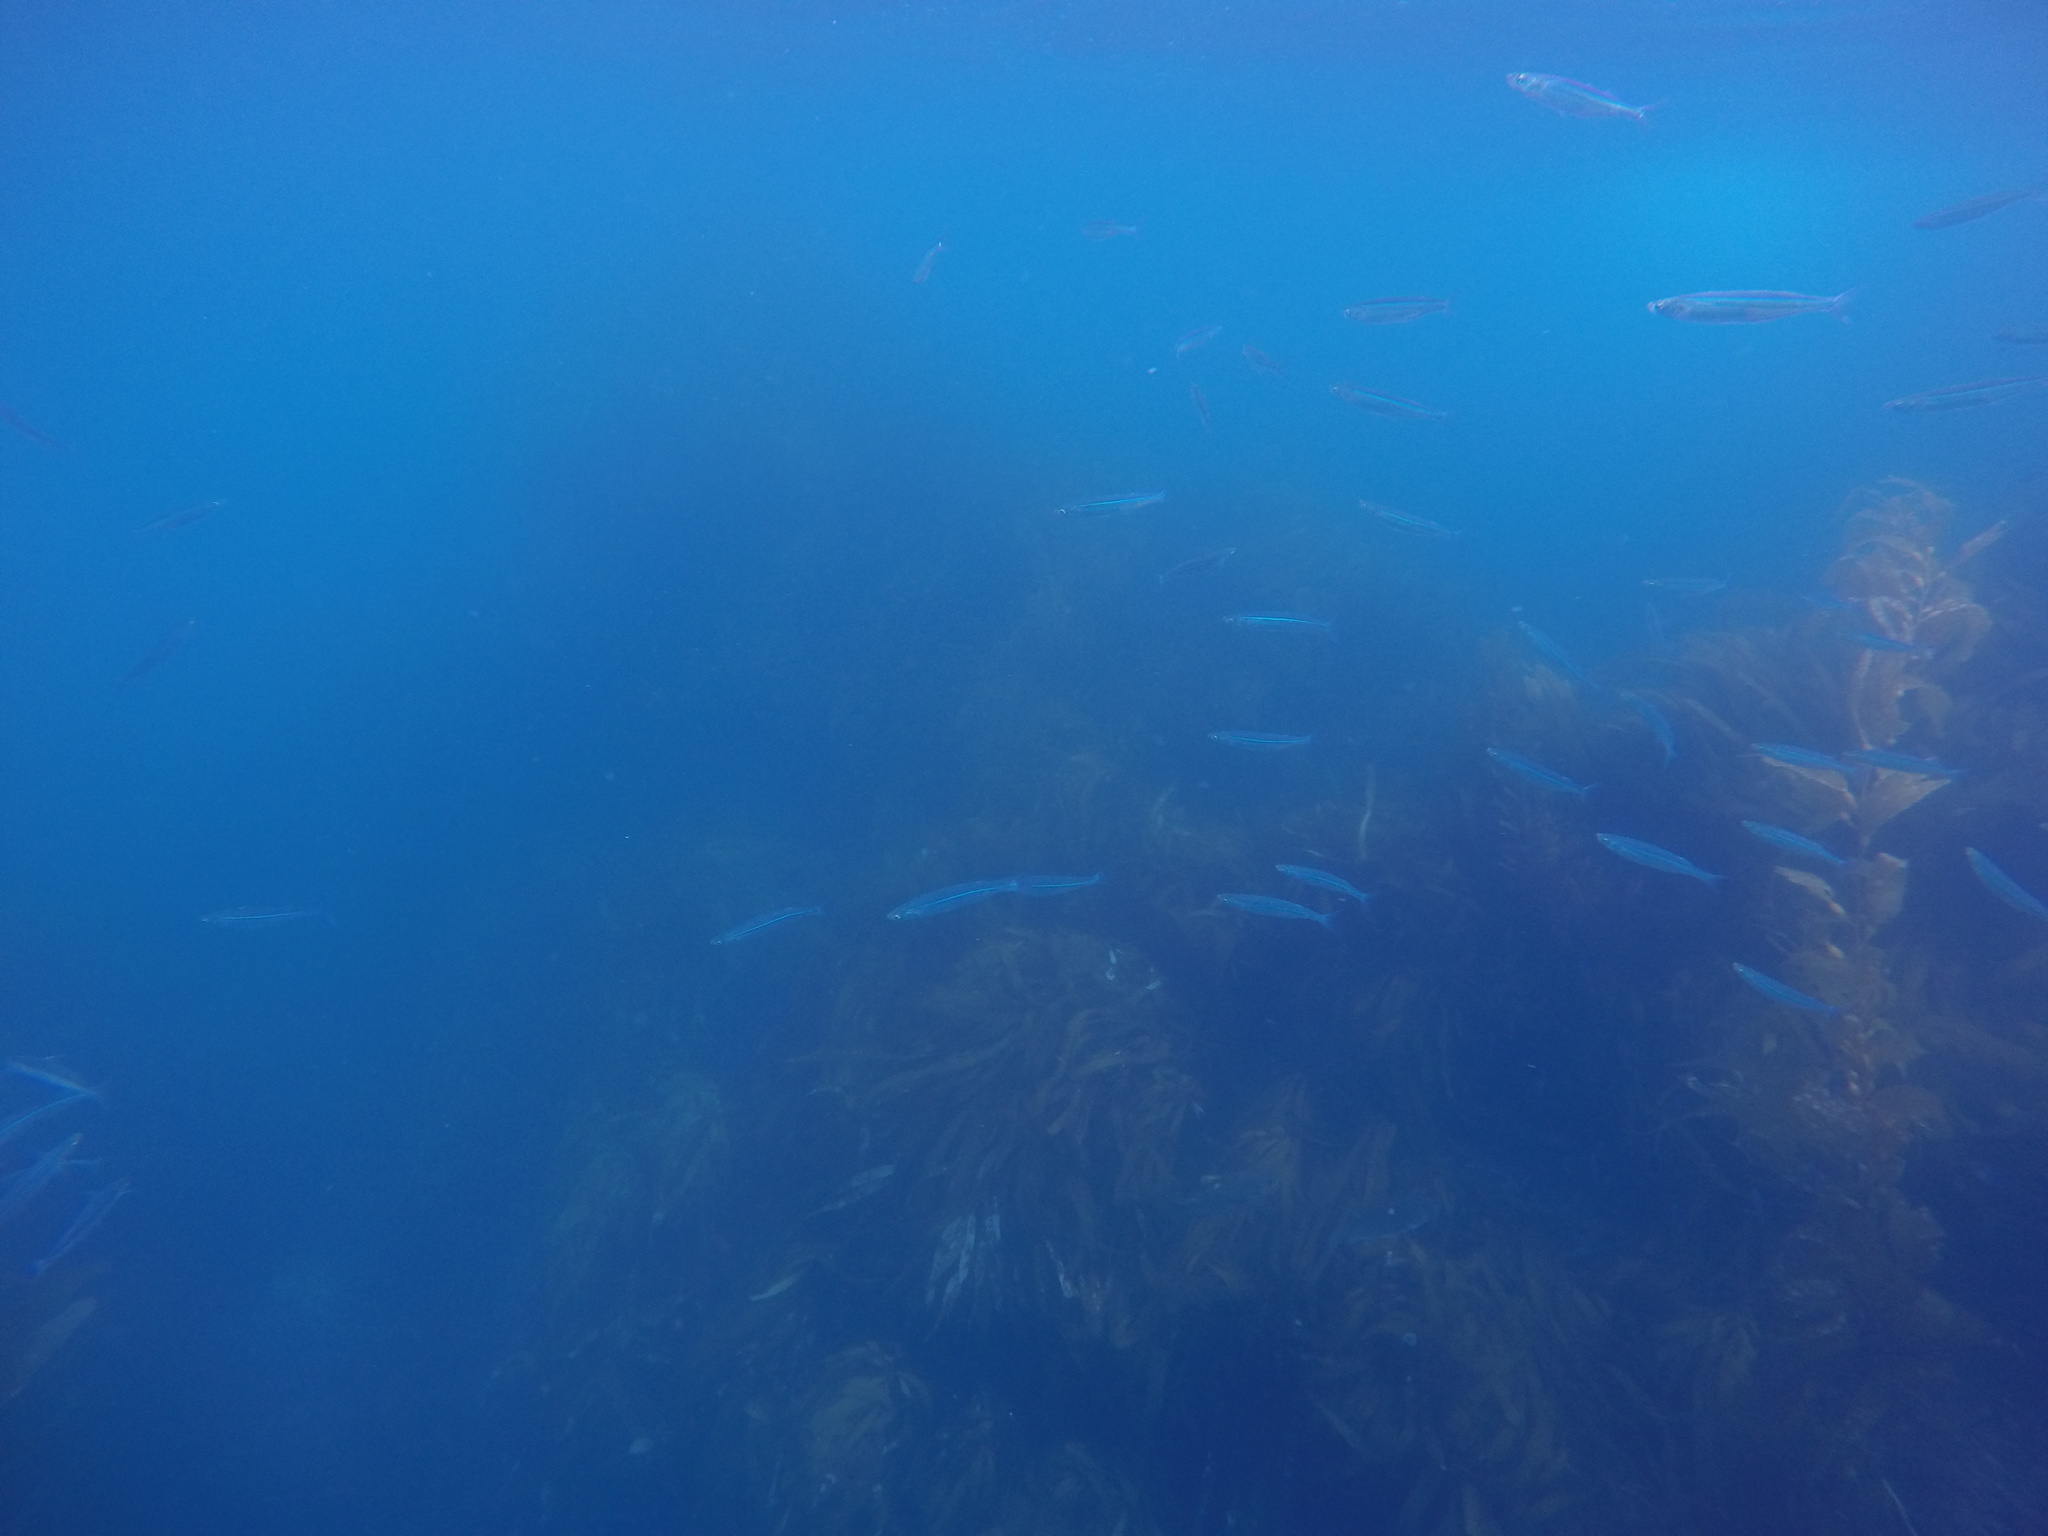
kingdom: Animalia
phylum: Chordata
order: Atheriniformes
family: Atherinopsidae
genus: Atherinops
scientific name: Atherinops affinis
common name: Topsmelt
